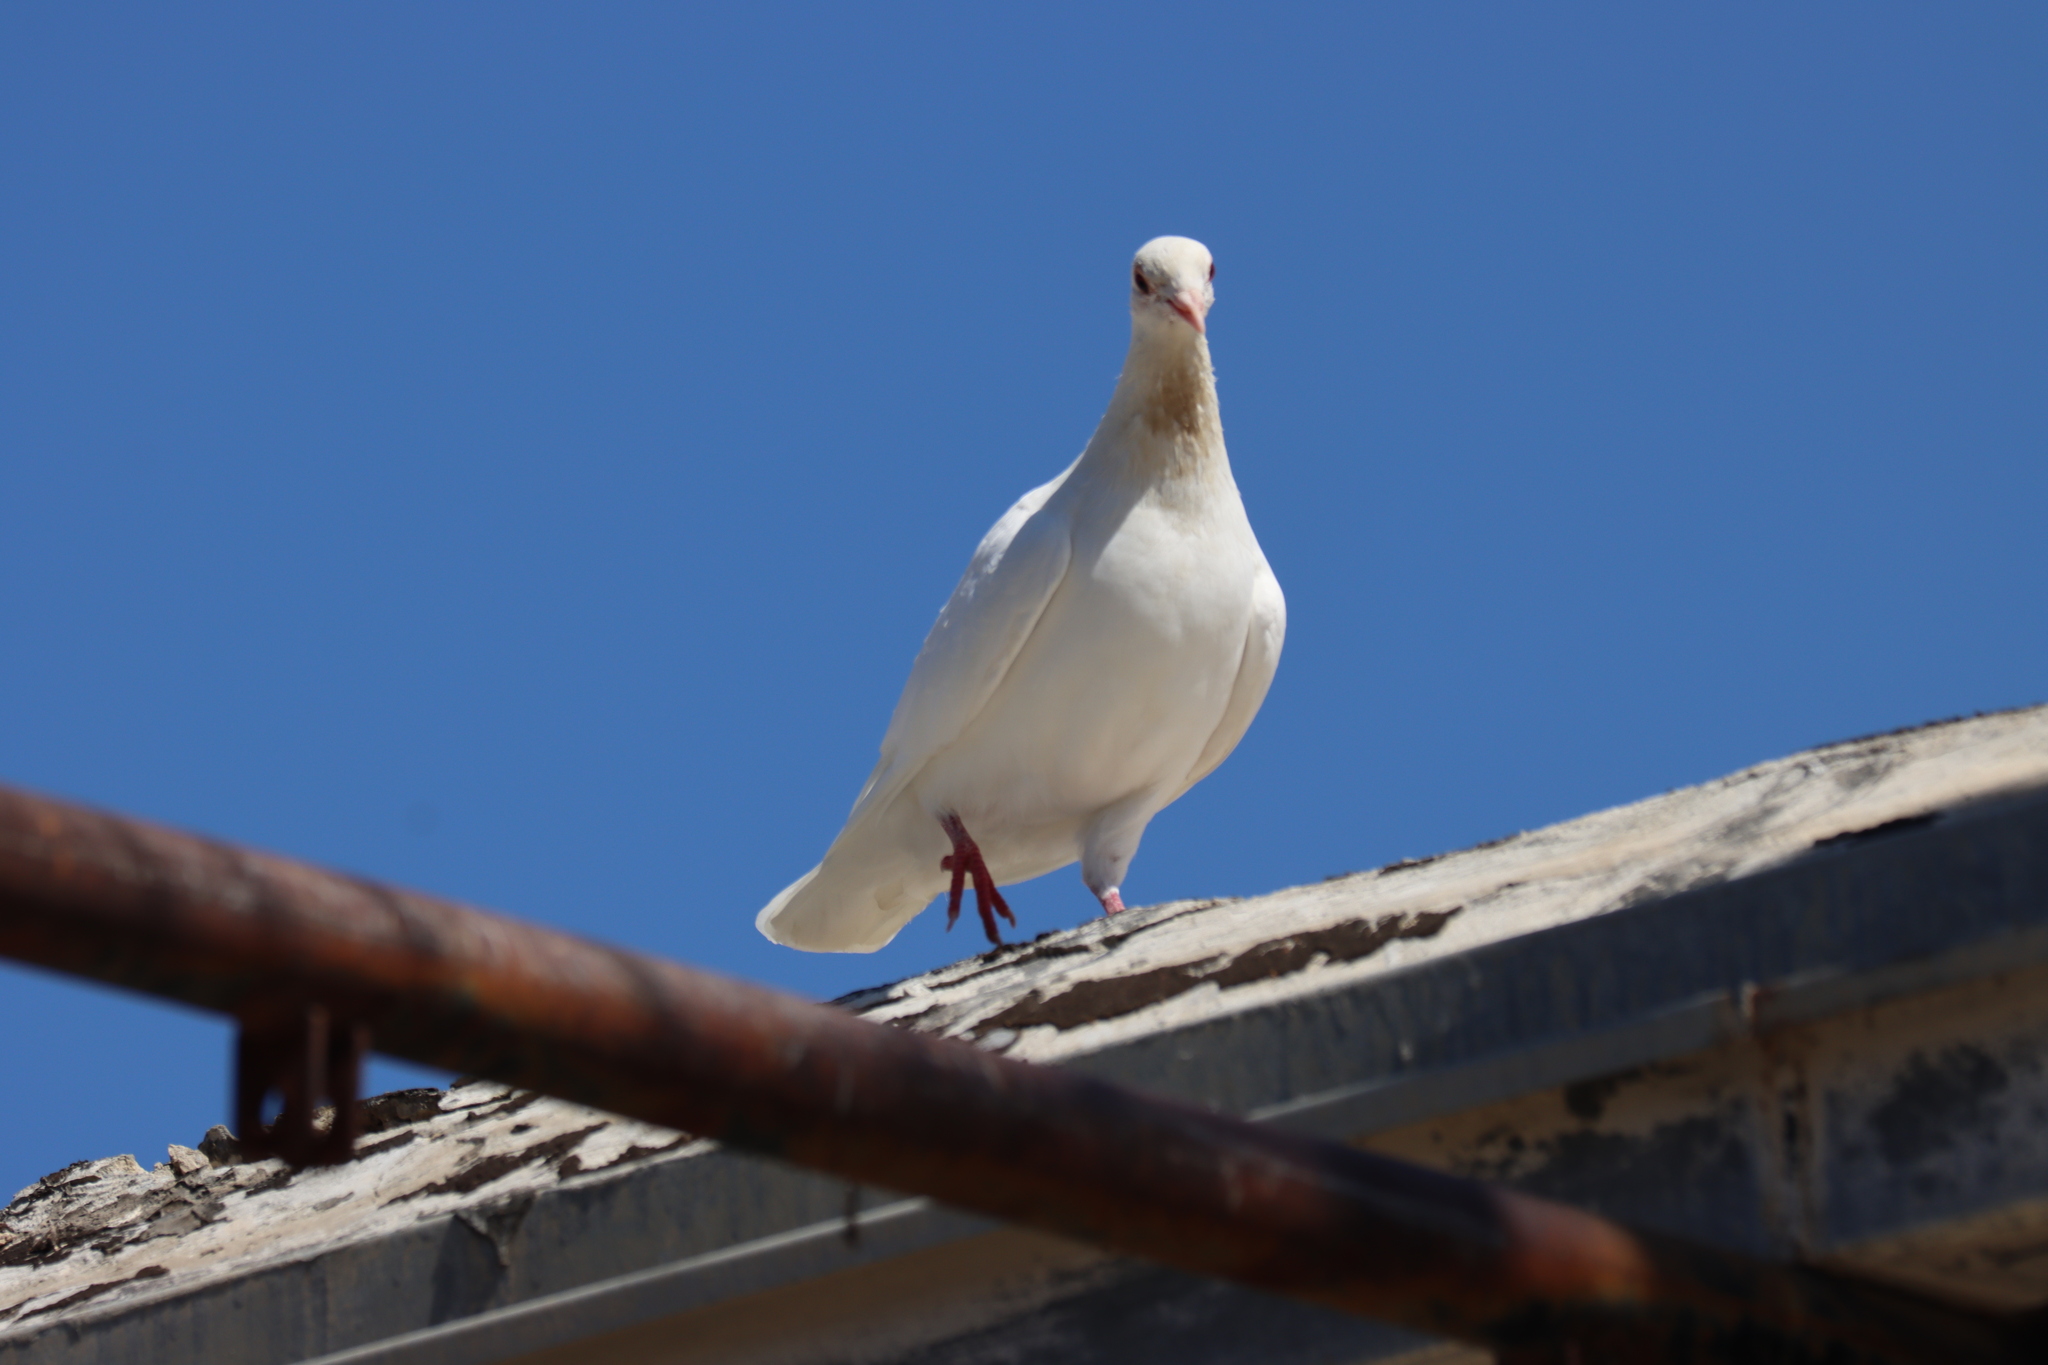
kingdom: Animalia
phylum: Chordata
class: Aves
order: Columbiformes
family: Columbidae
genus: Columba
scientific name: Columba livia
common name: Rock pigeon
